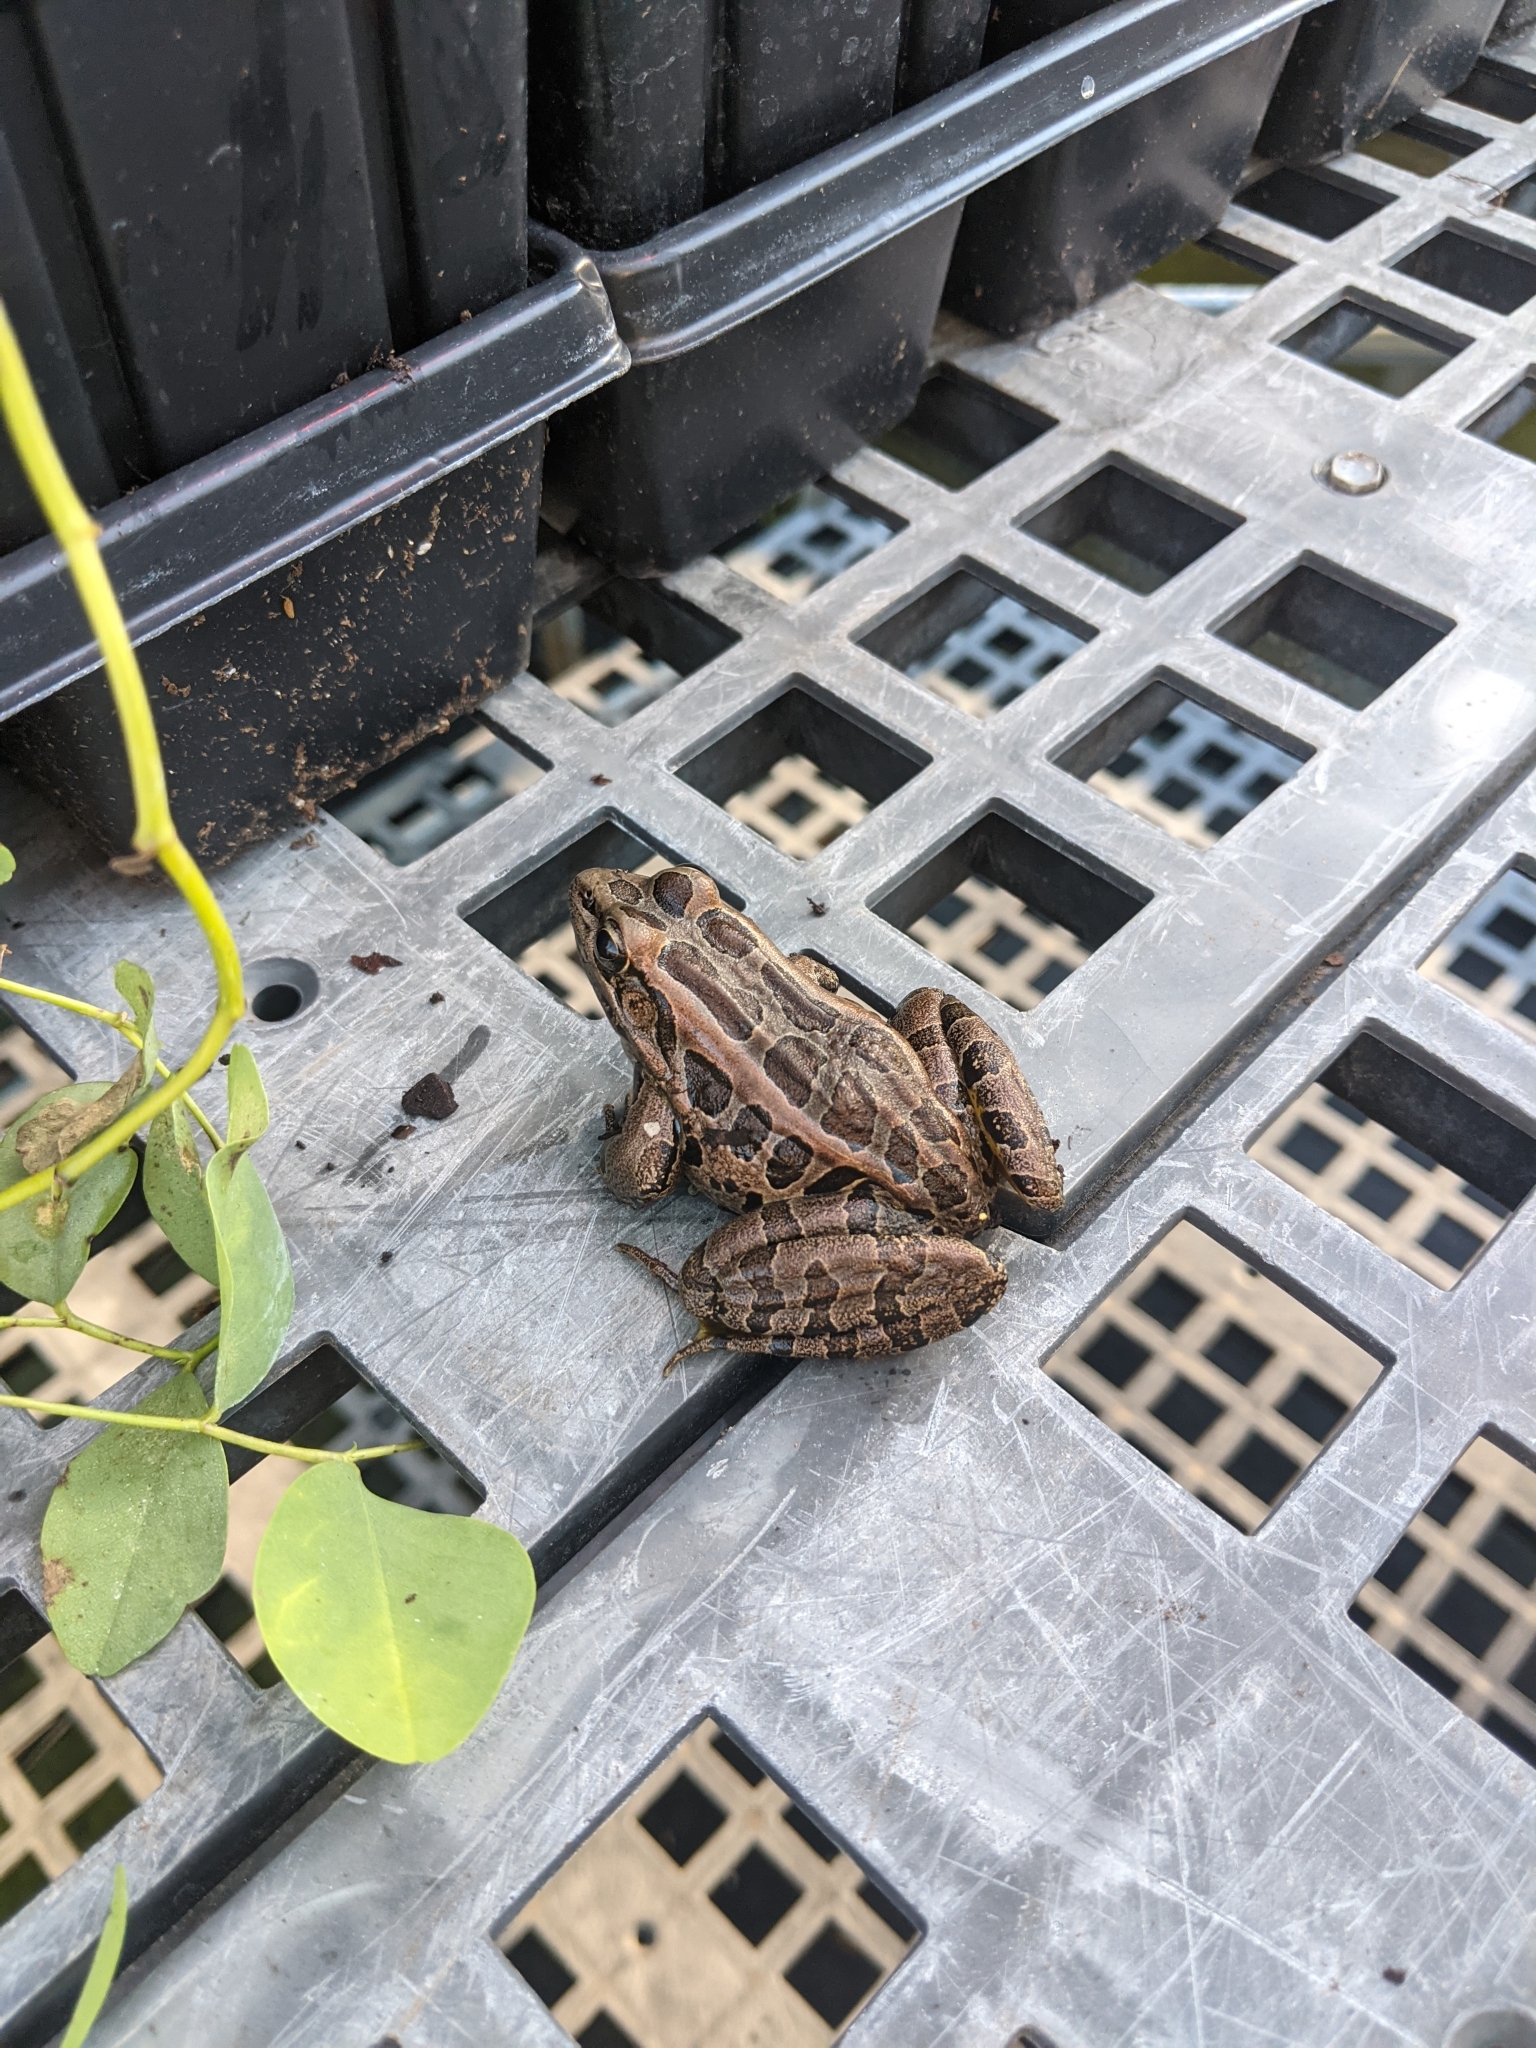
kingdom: Animalia
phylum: Chordata
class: Amphibia
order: Anura
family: Ranidae
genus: Lithobates
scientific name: Lithobates palustris
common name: Pickerel frog
